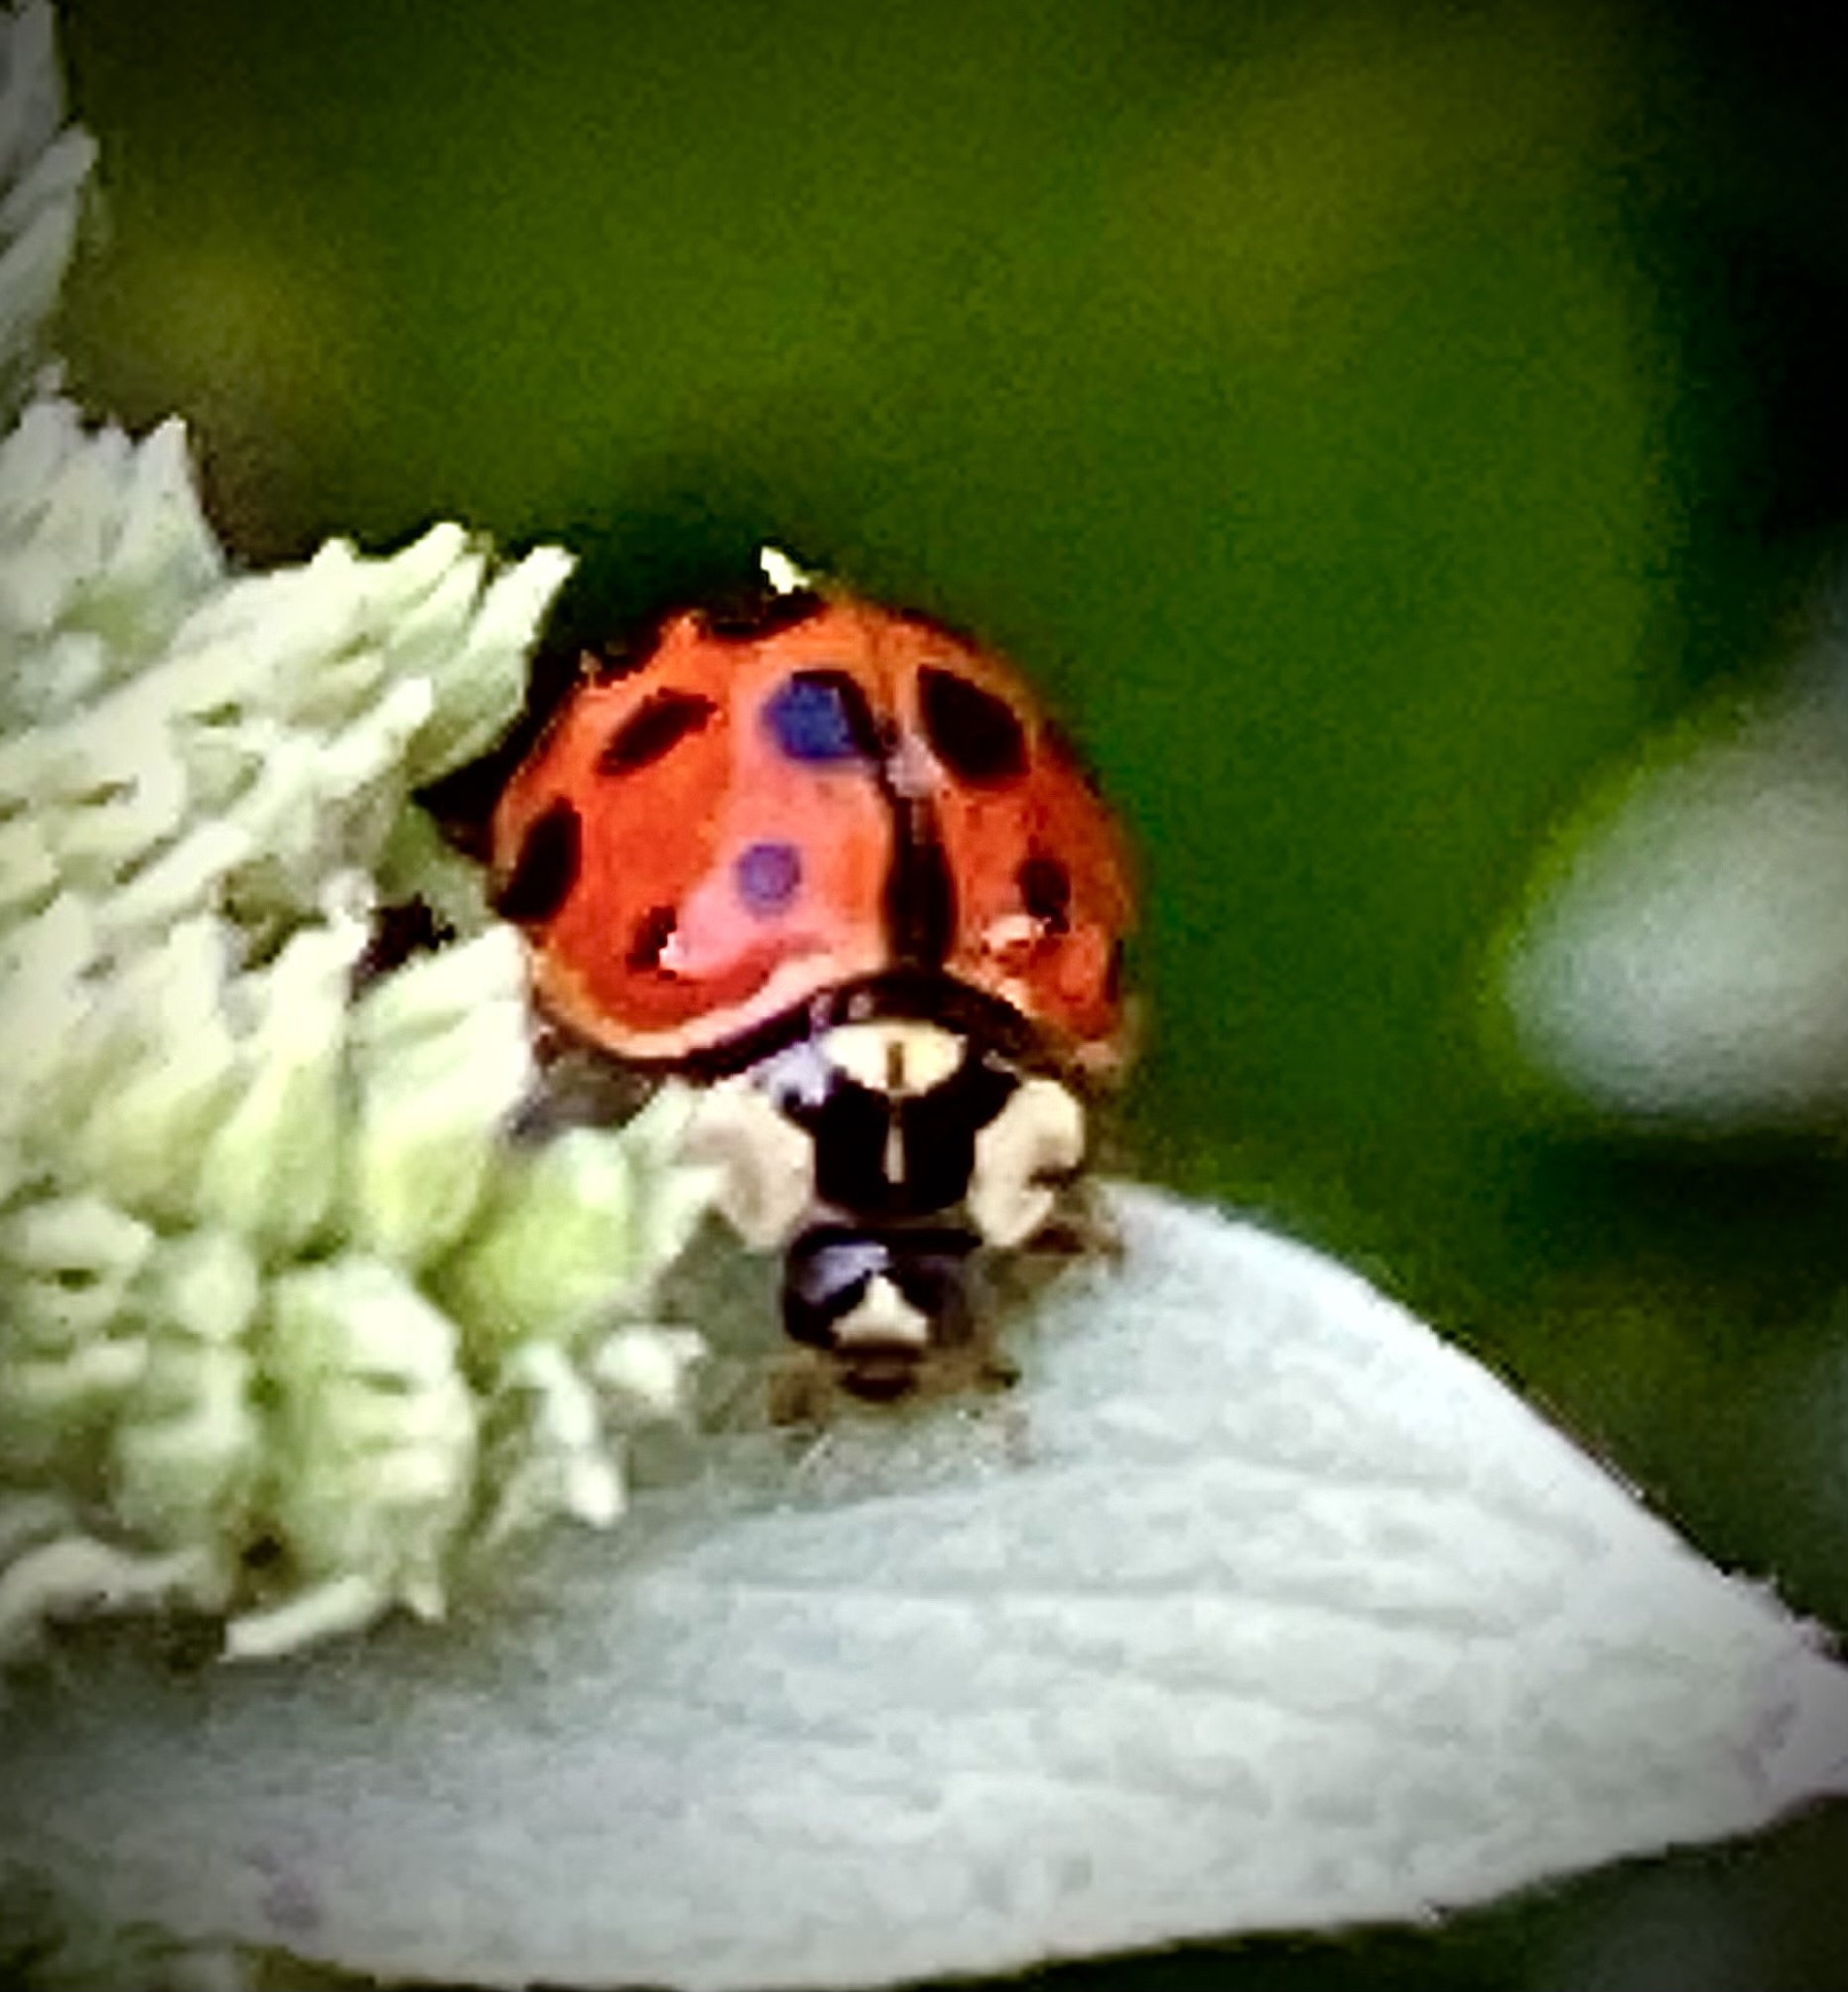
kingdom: Animalia
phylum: Arthropoda
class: Insecta
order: Coleoptera
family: Coccinellidae
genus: Harmonia
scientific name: Harmonia axyridis
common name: Harlequin ladybird
